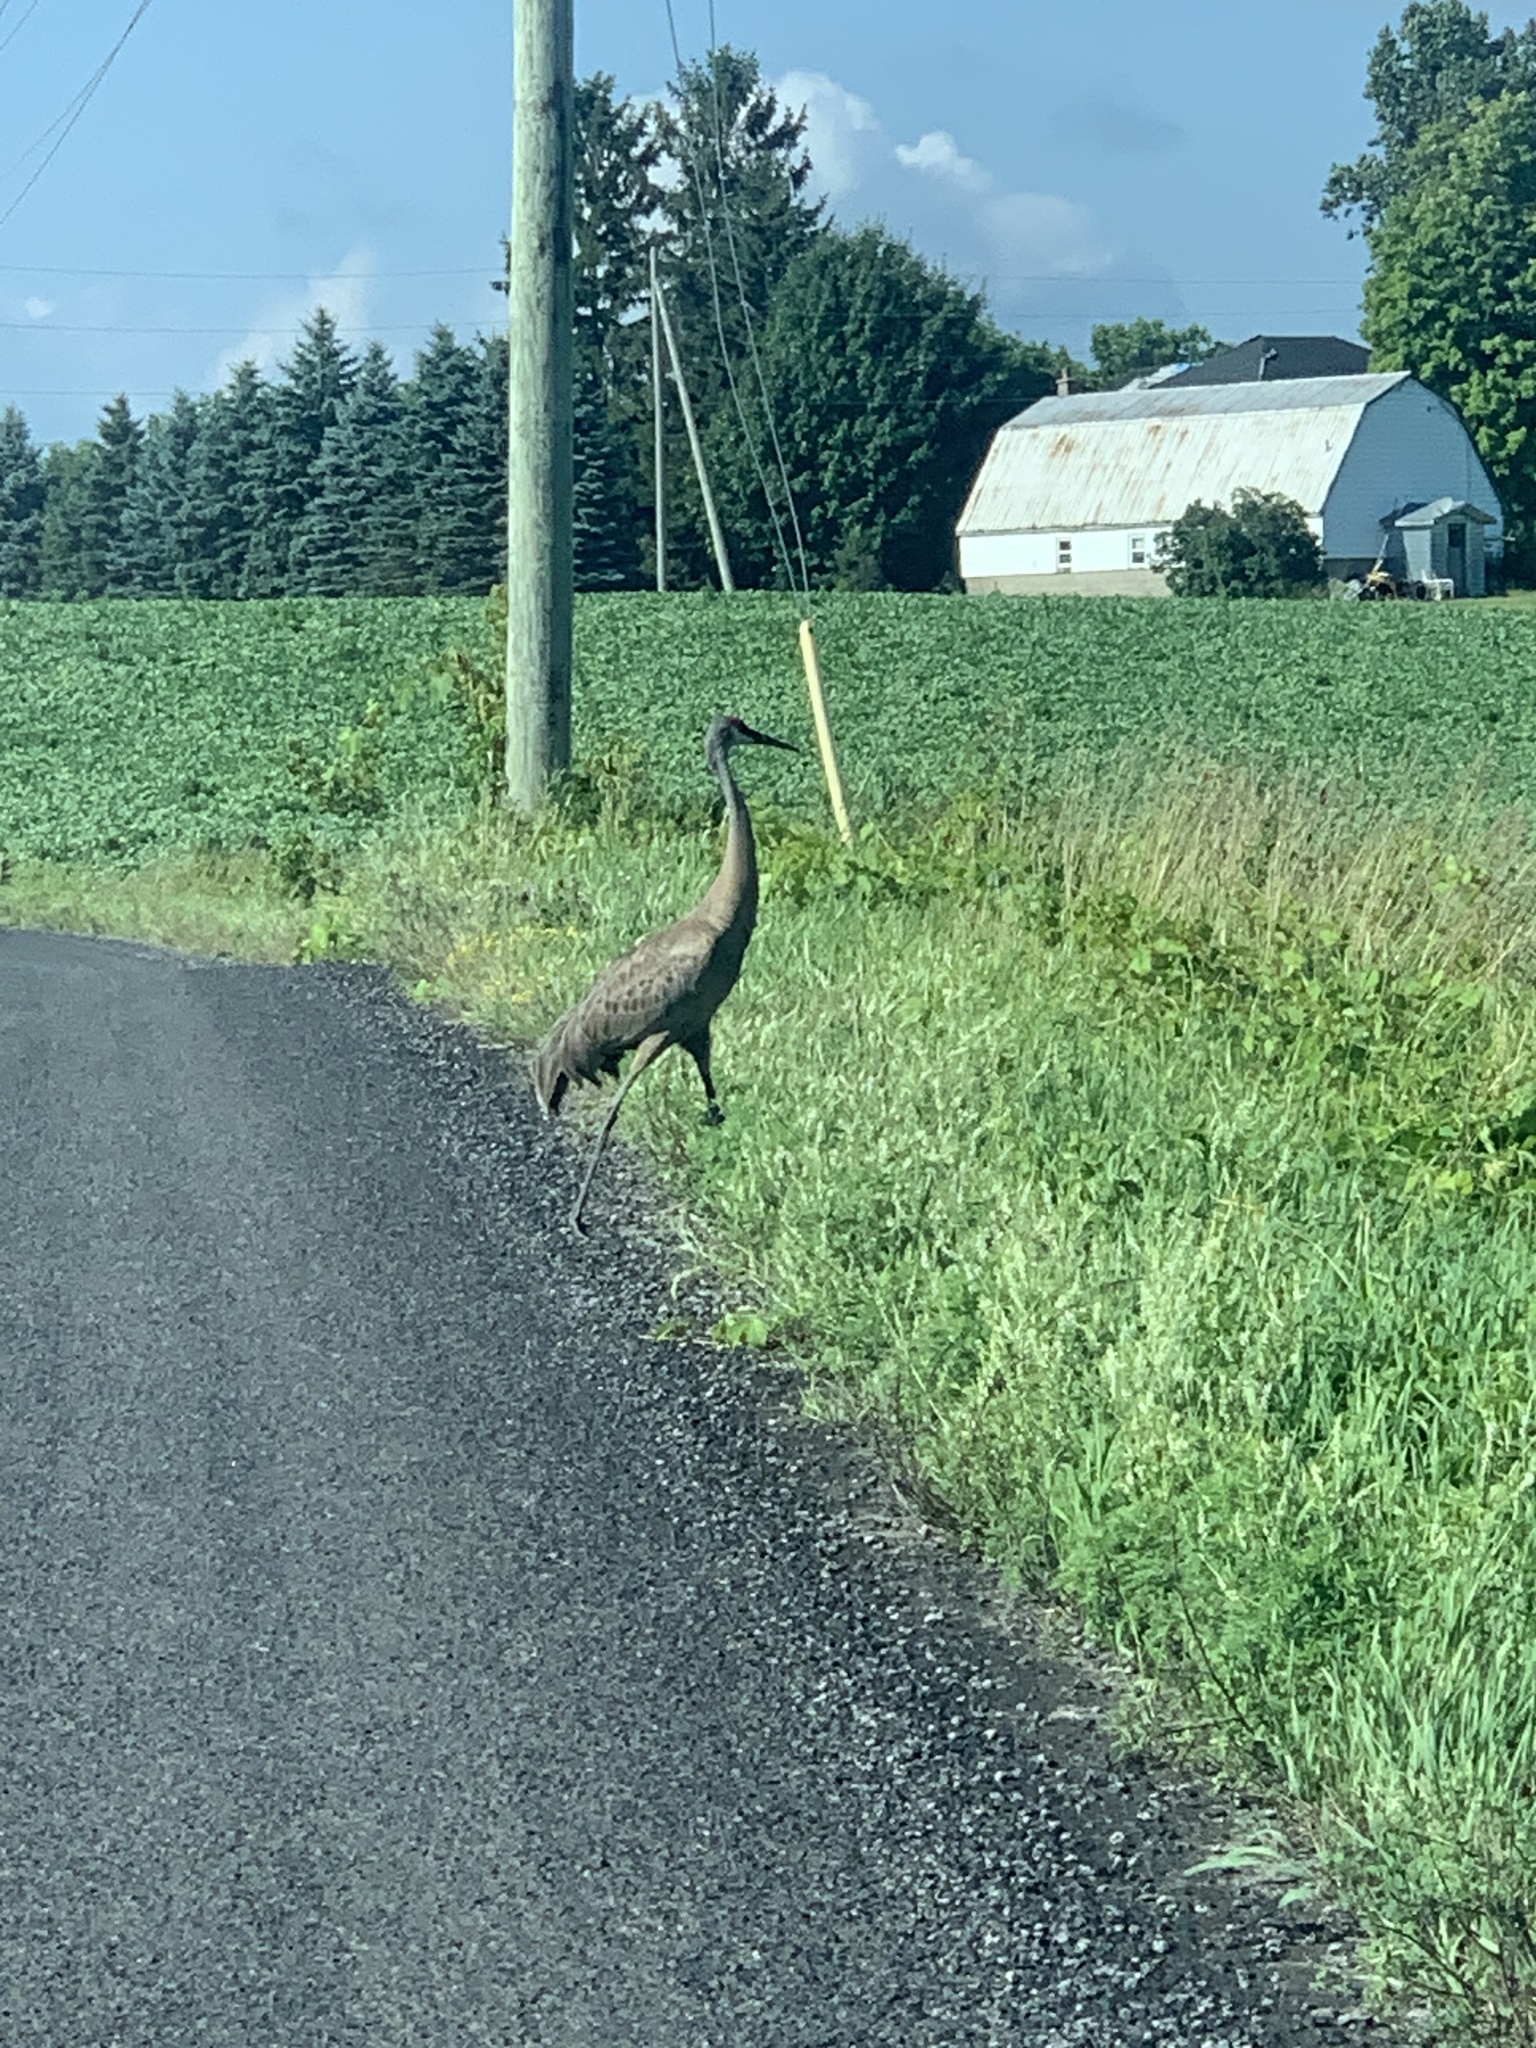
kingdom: Animalia
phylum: Chordata
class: Aves
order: Gruiformes
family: Gruidae
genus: Grus
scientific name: Grus canadensis
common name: Sandhill crane
